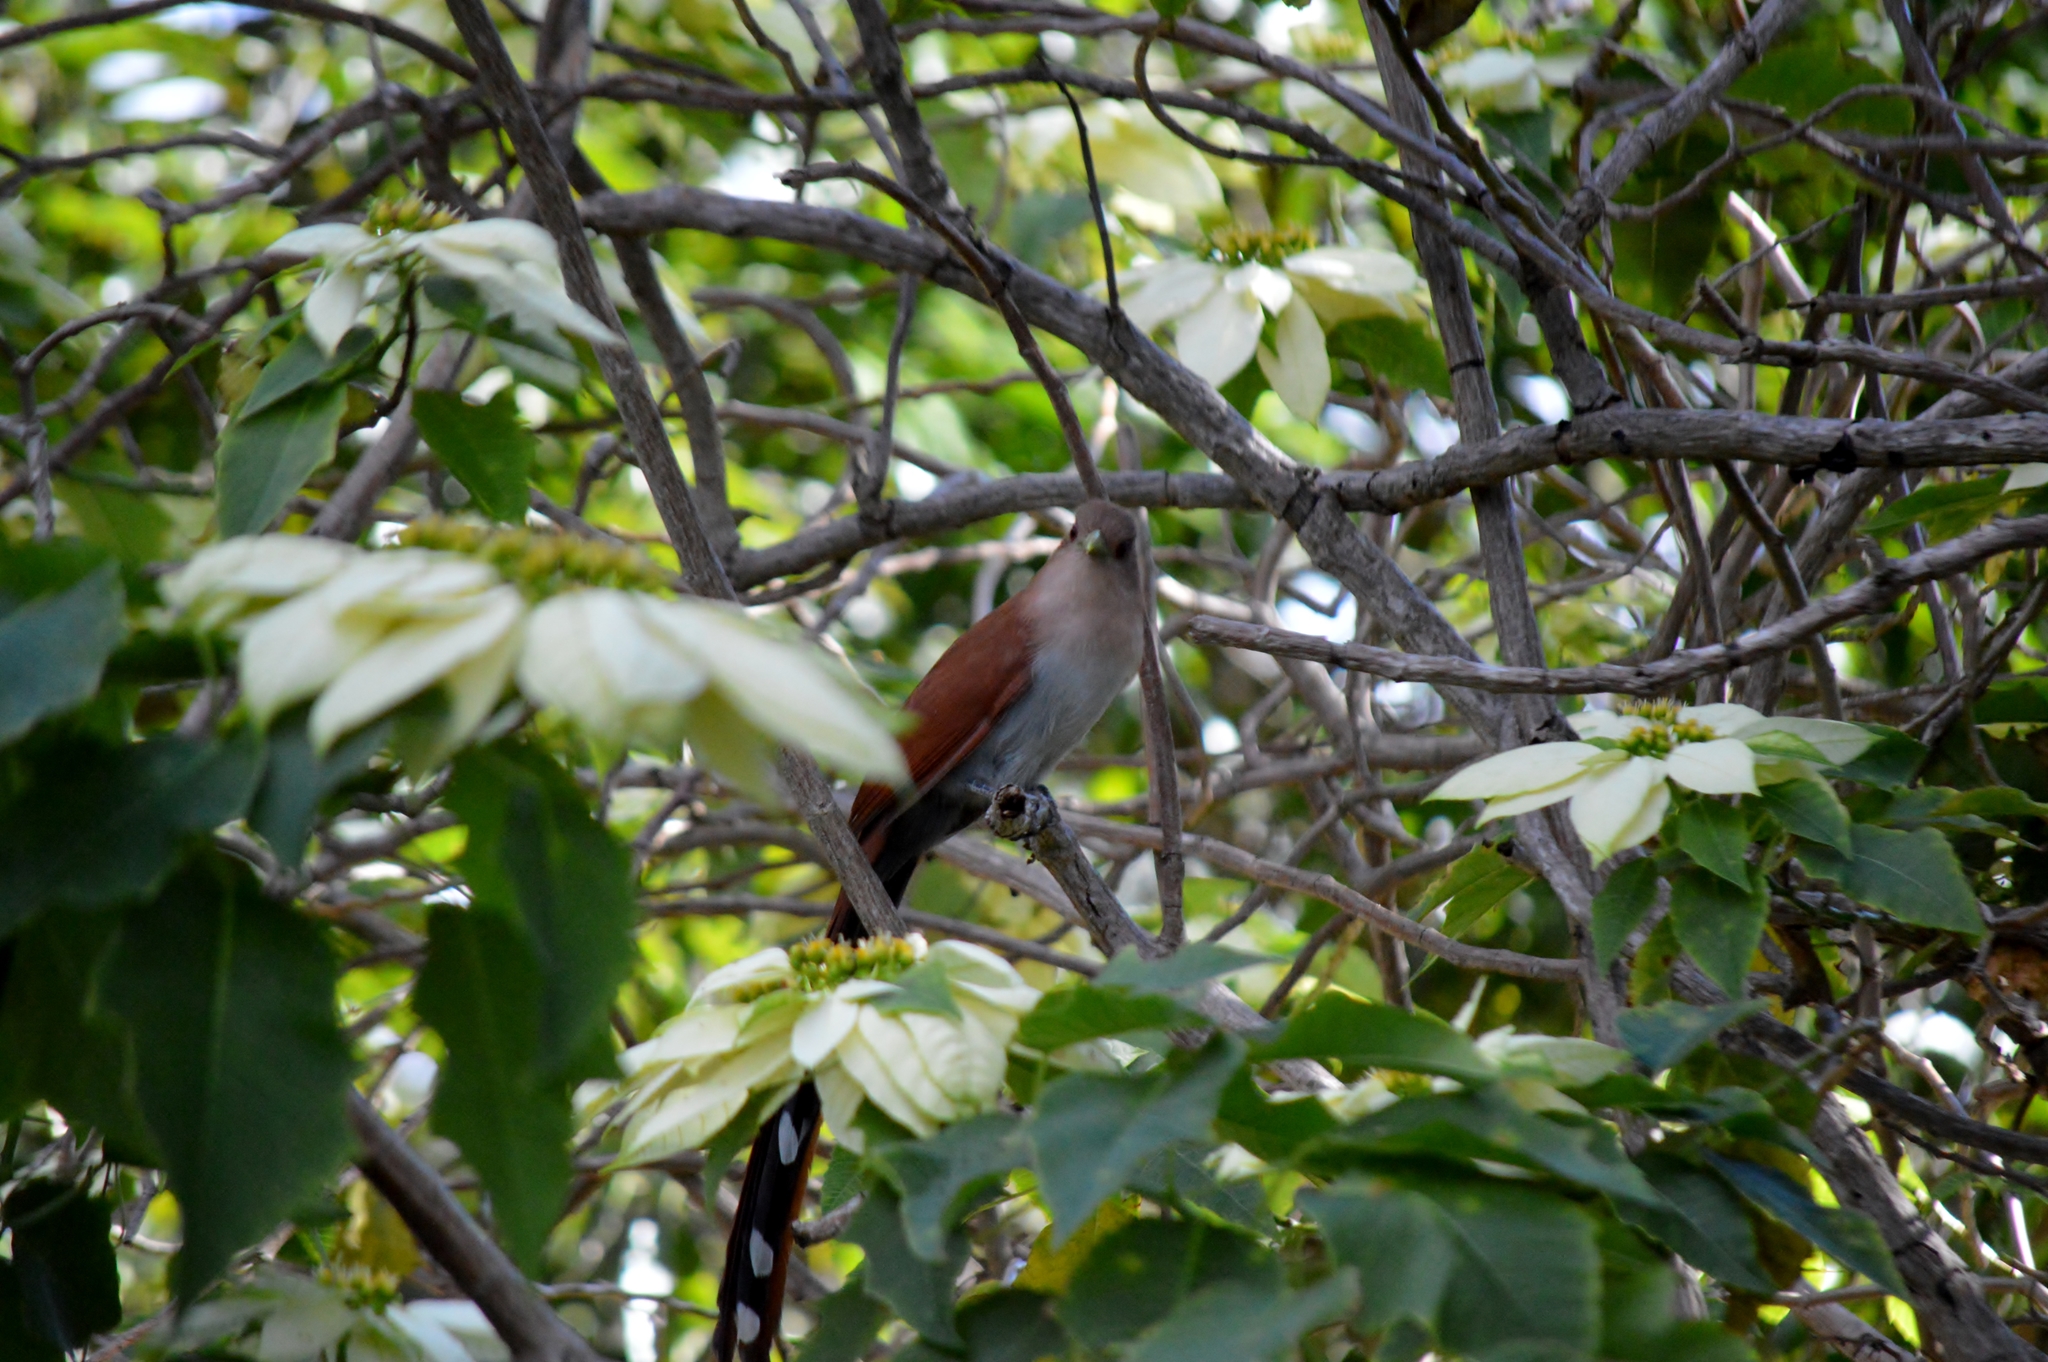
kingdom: Animalia
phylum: Chordata
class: Aves
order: Cuculiformes
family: Cuculidae
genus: Piaya
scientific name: Piaya cayana
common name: Squirrel cuckoo
